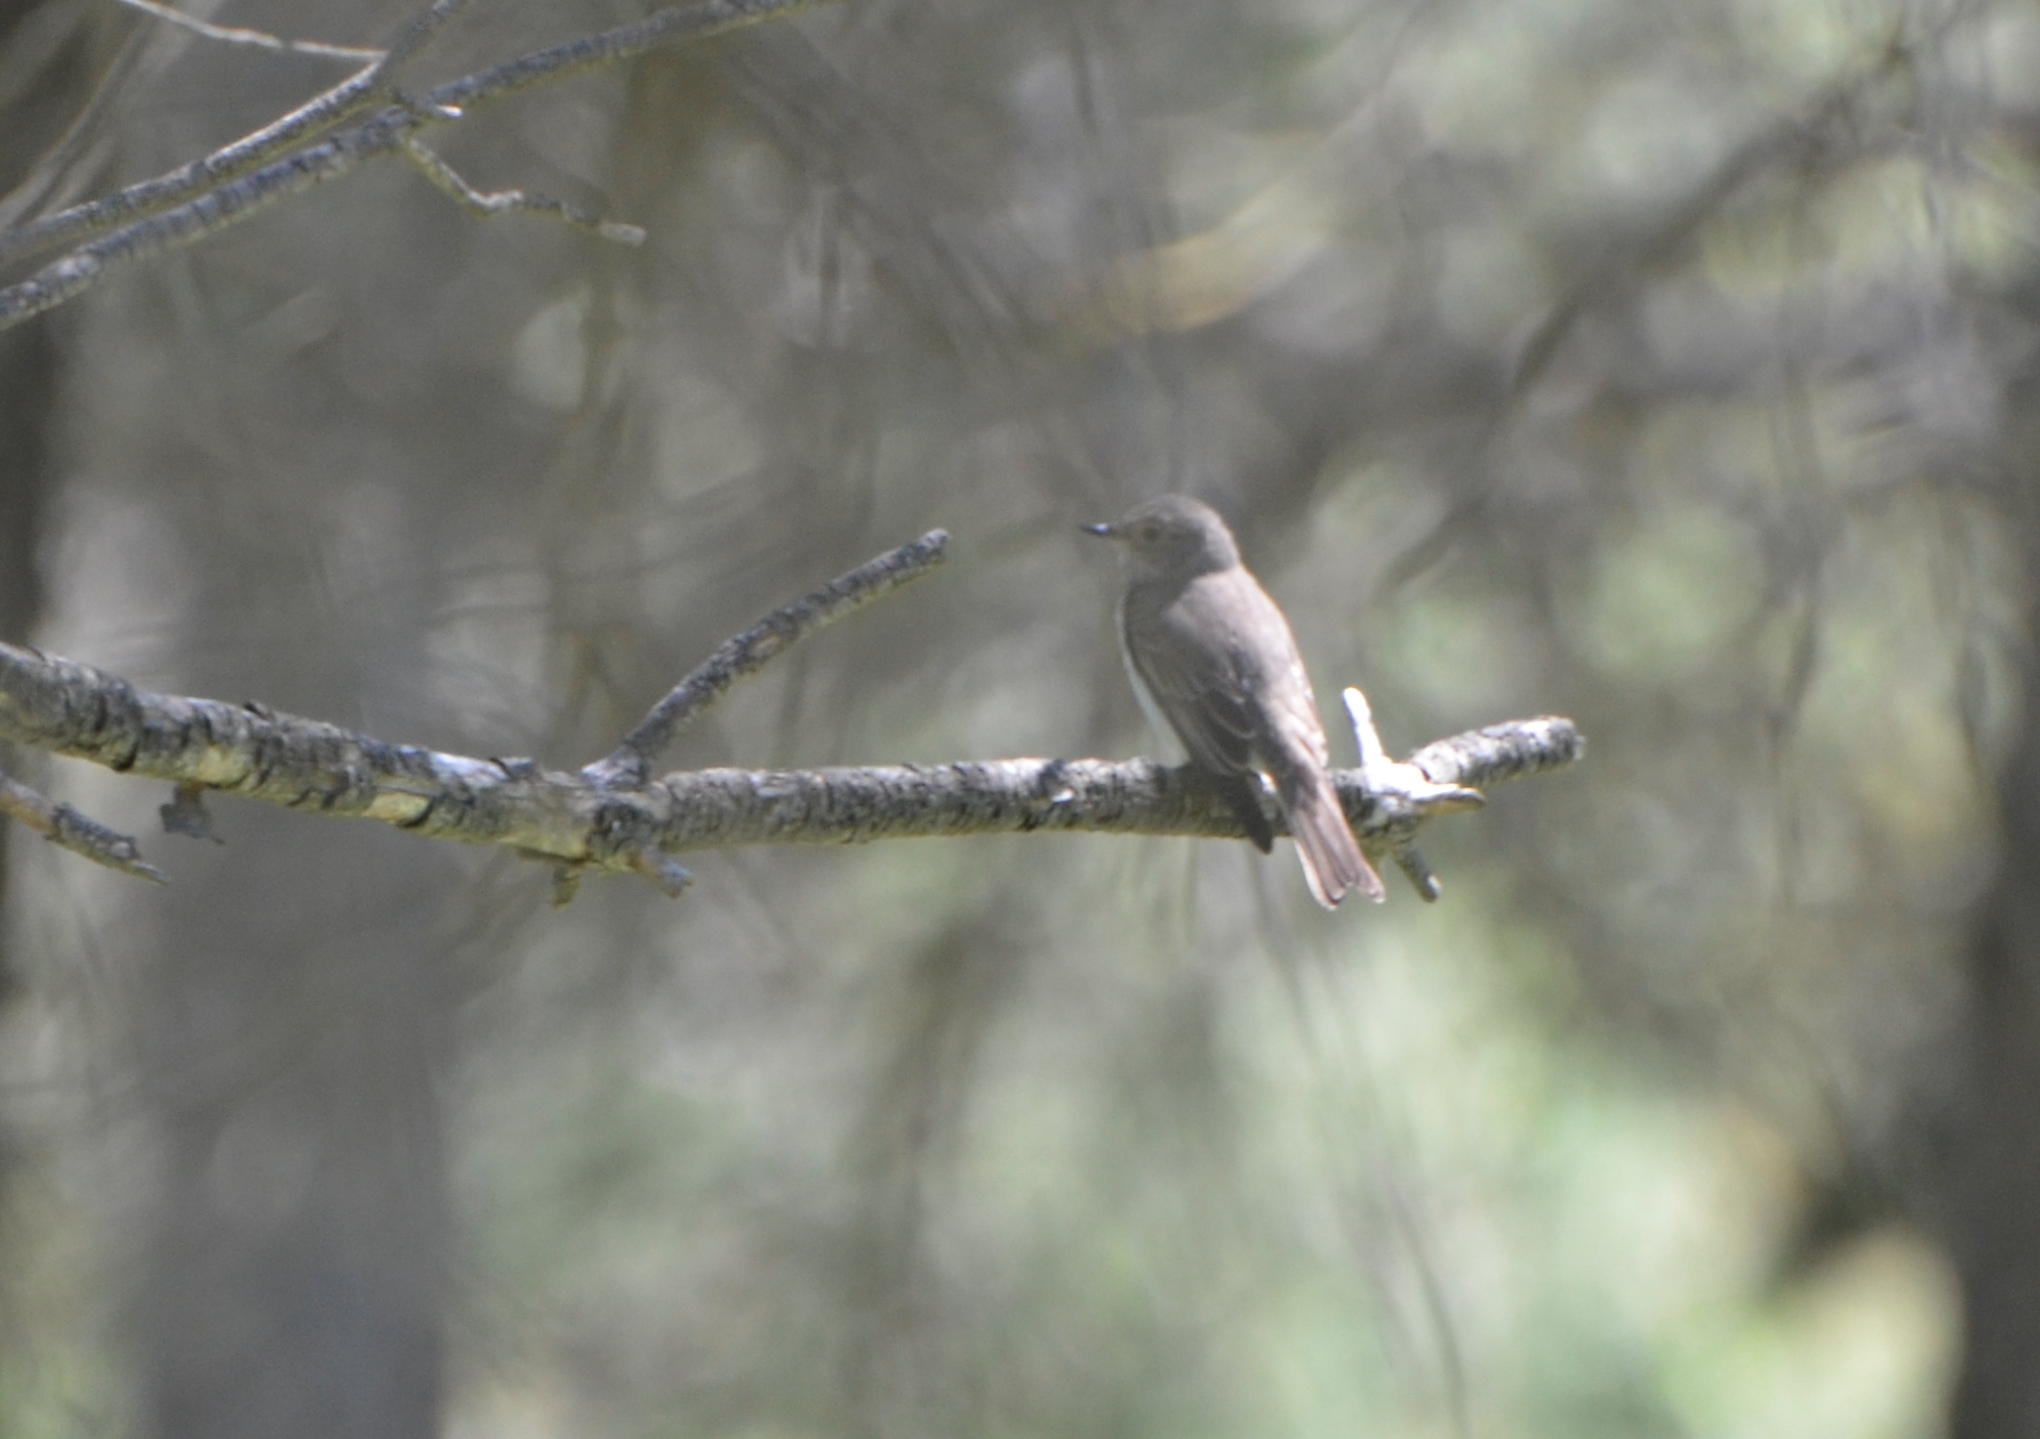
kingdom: Animalia
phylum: Chordata
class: Aves
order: Passeriformes
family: Muscicapidae
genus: Muscicapa
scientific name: Muscicapa striata
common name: Spotted flycatcher
